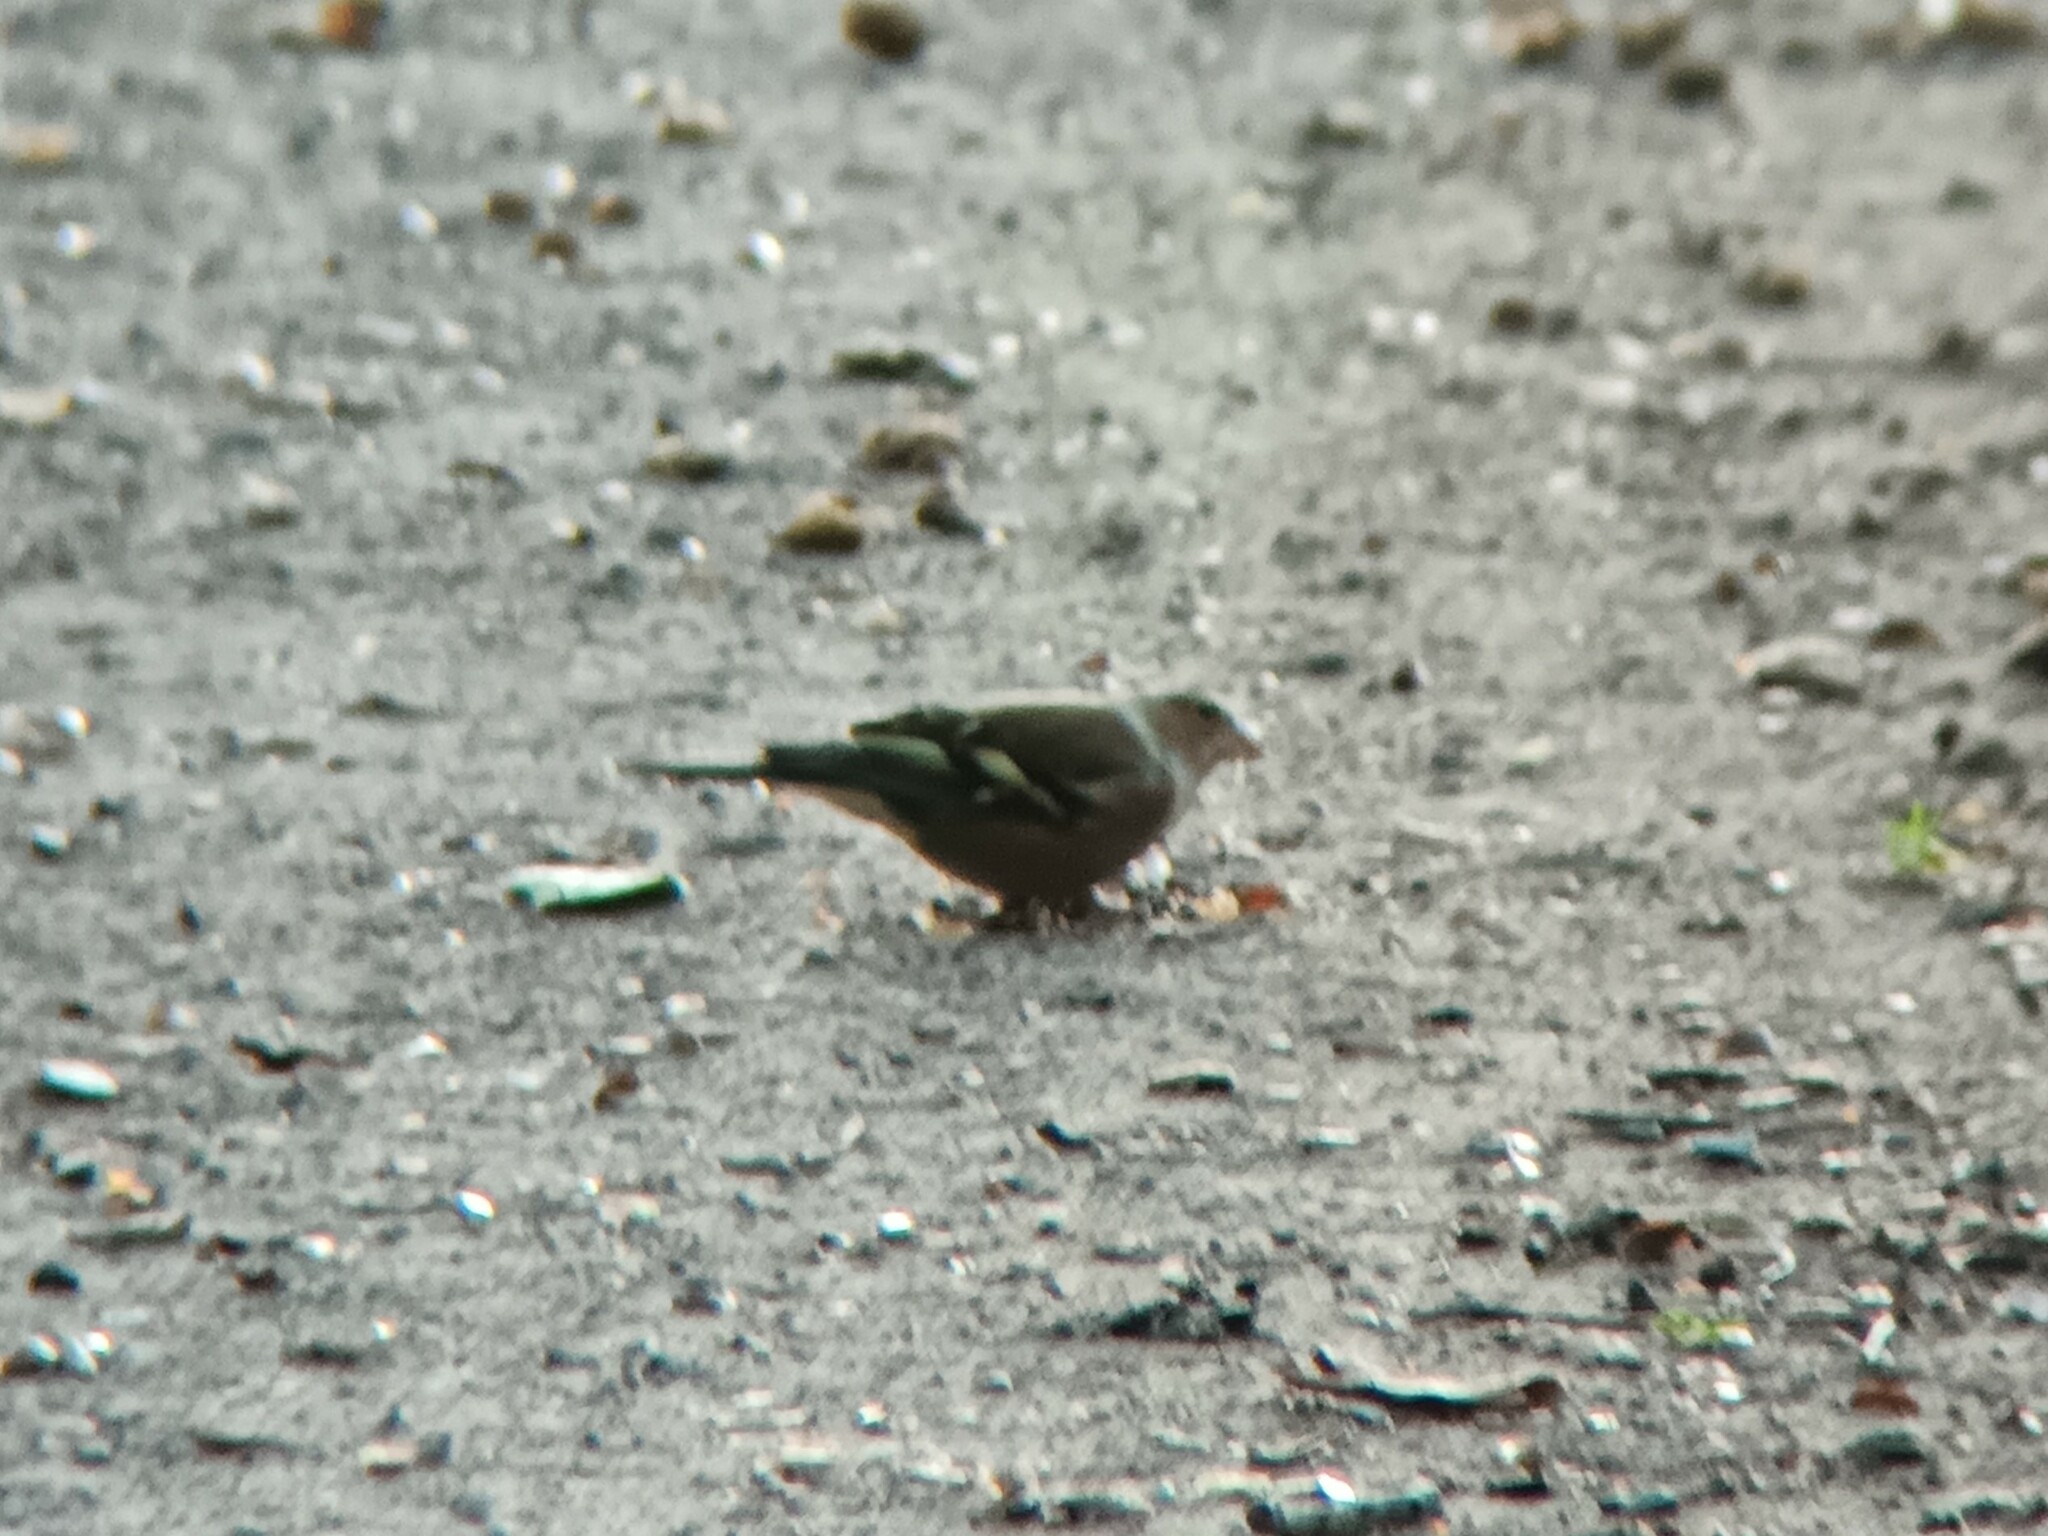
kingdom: Animalia
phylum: Chordata
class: Aves
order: Passeriformes
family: Fringillidae
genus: Fringilla
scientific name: Fringilla coelebs
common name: Common chaffinch
